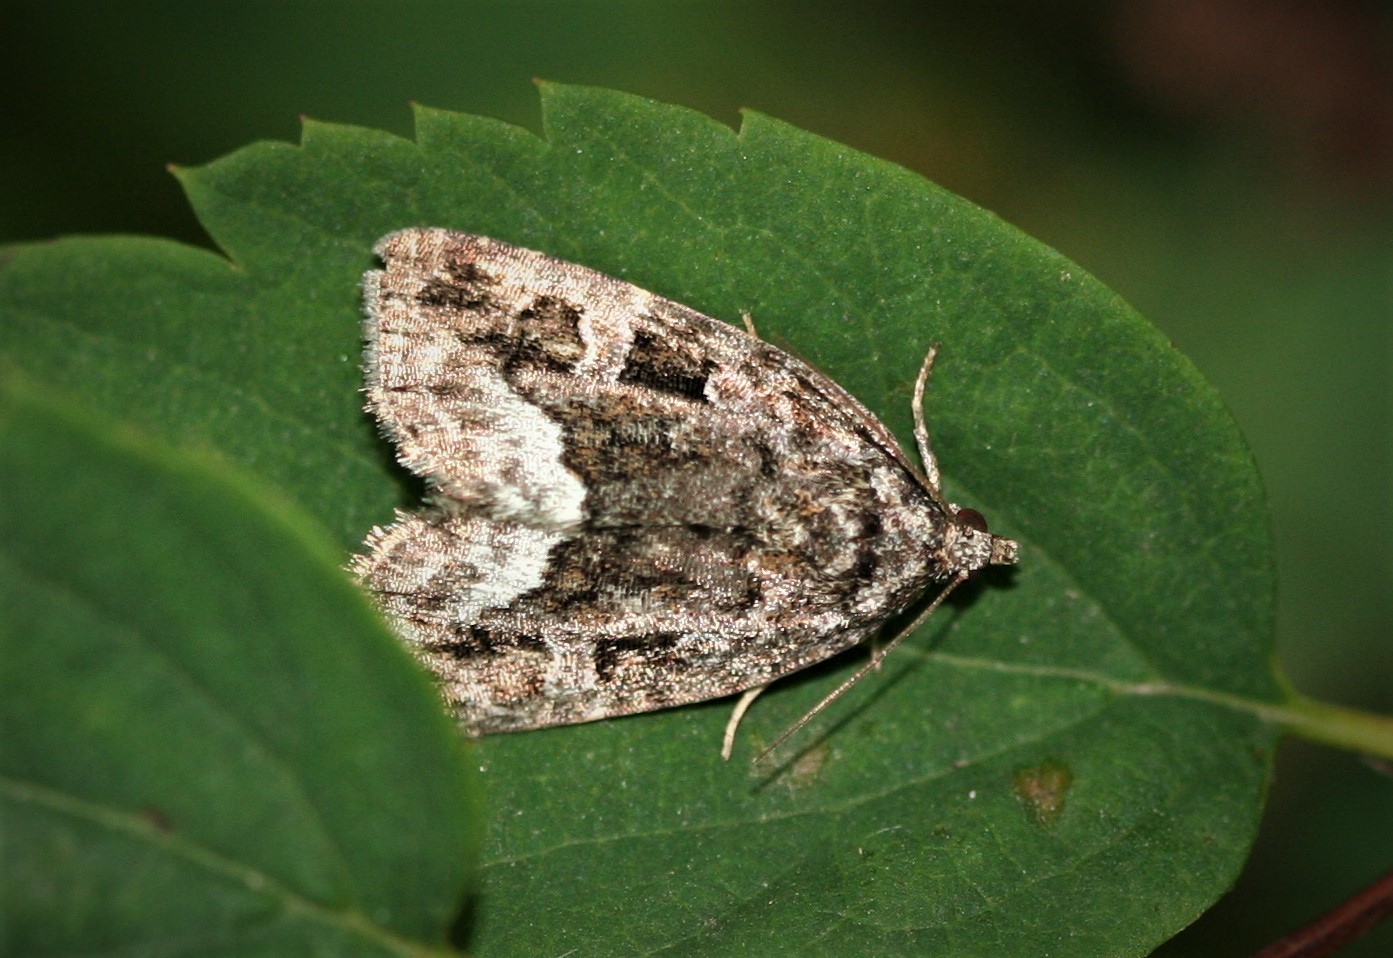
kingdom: Animalia
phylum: Arthropoda
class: Insecta
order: Lepidoptera
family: Noctuidae
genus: Deltote
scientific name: Deltote pygarga
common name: Marbled white spot
